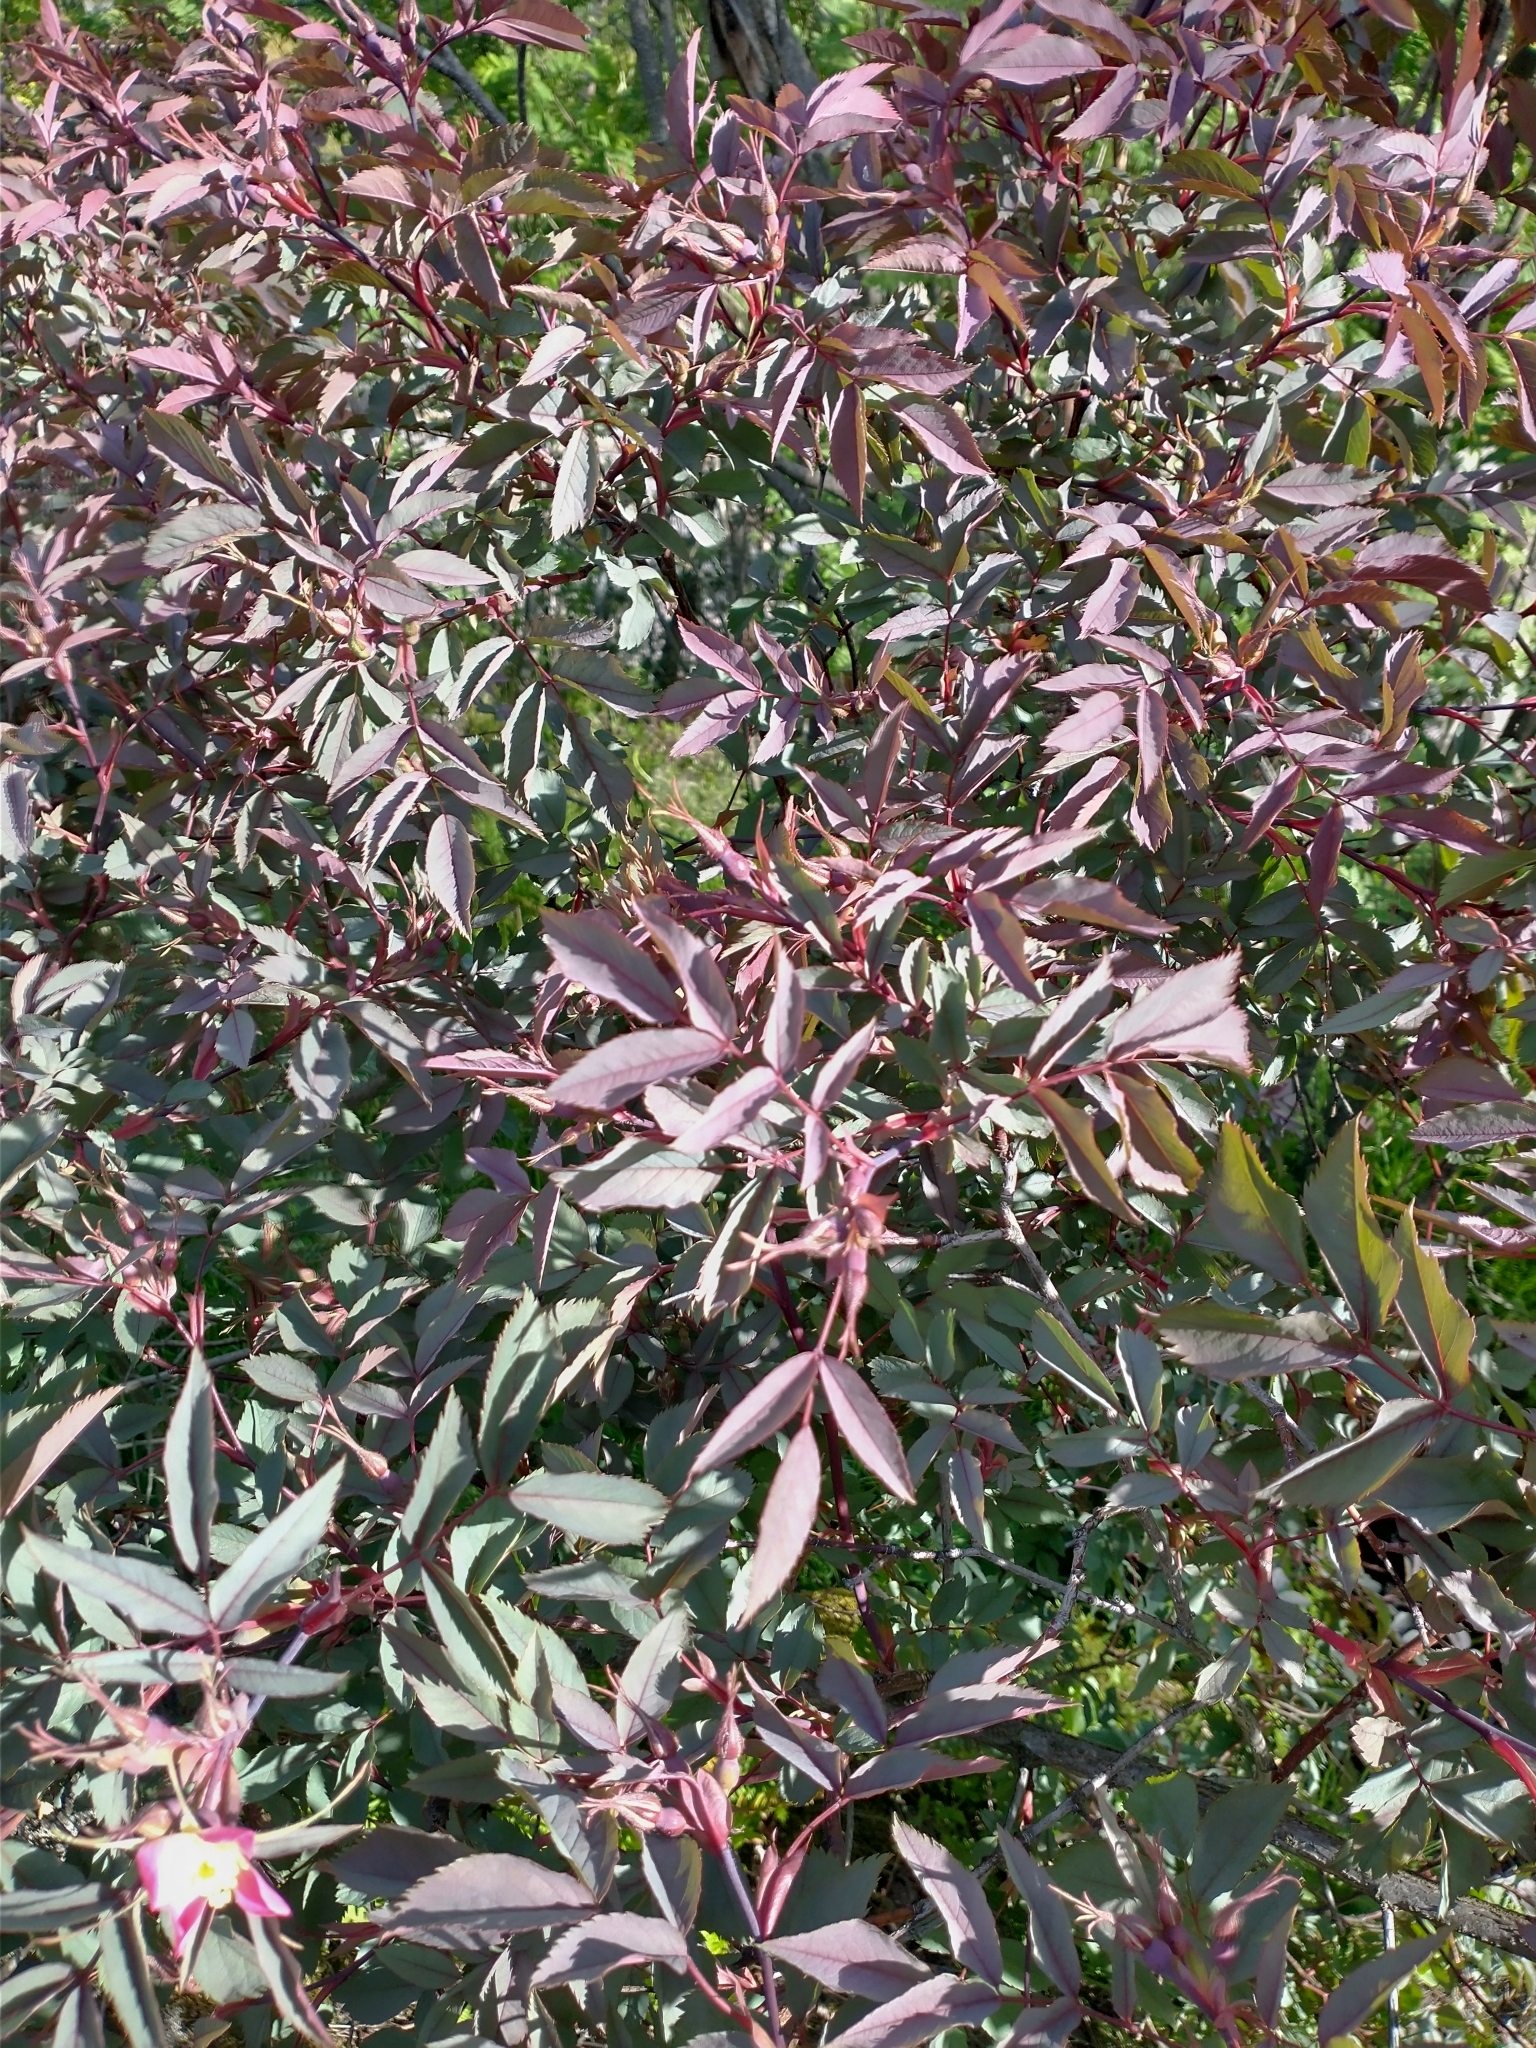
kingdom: Plantae
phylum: Tracheophyta
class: Magnoliopsida
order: Rosales
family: Rosaceae
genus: Rosa
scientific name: Rosa glauca
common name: Redleaf rose
